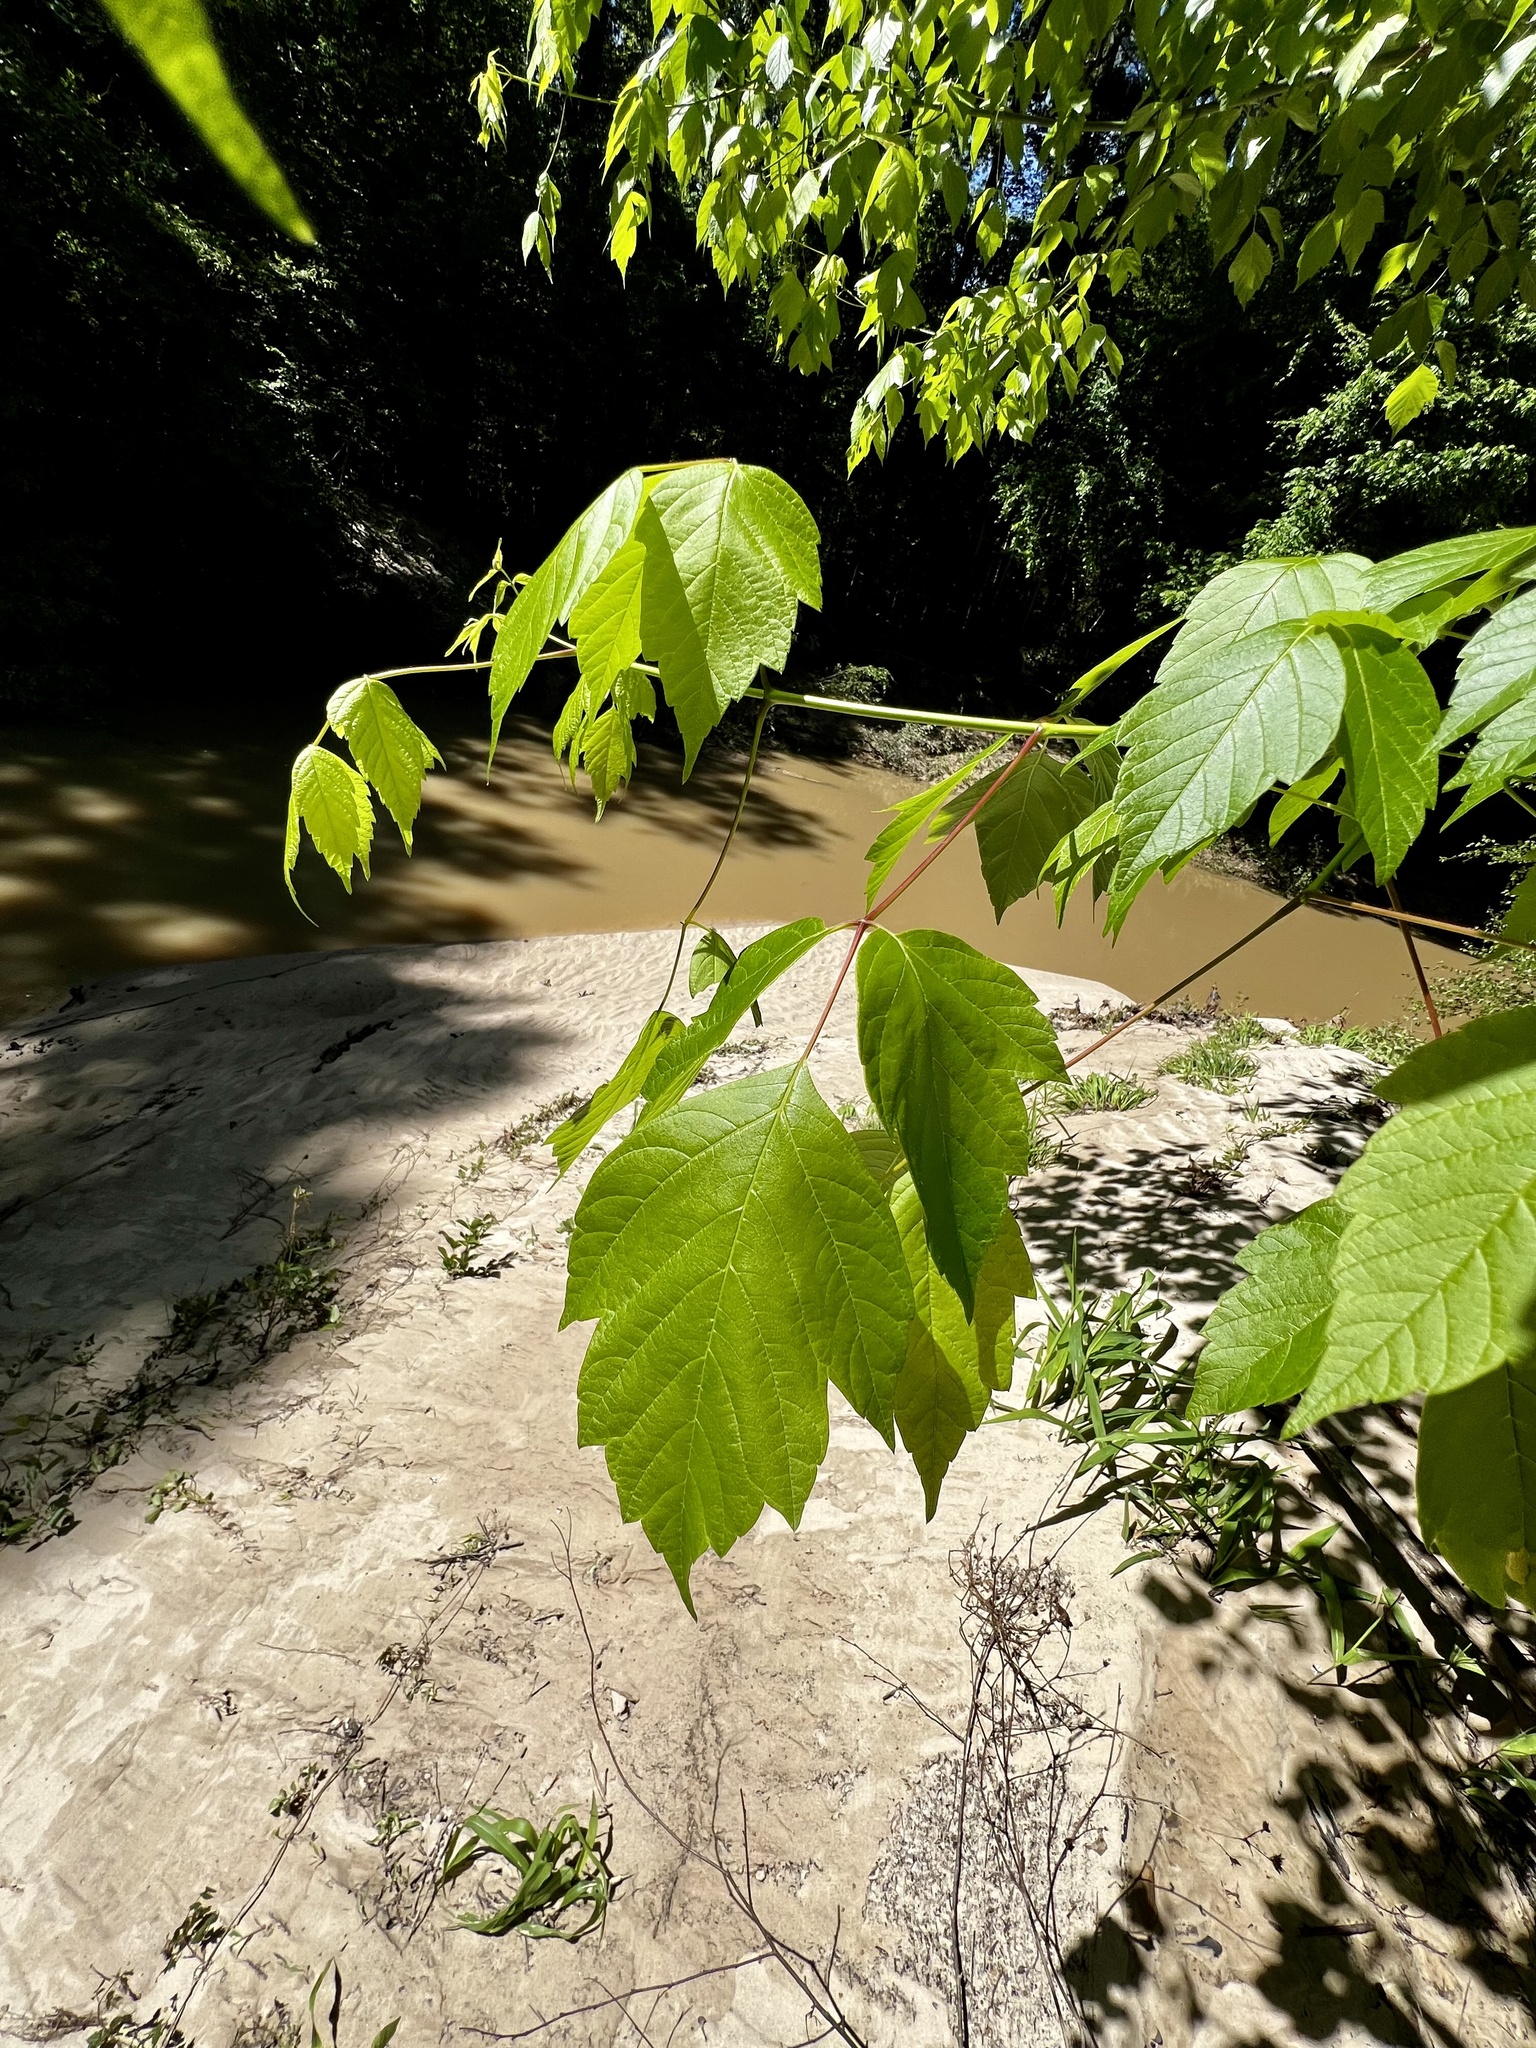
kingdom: Plantae
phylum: Tracheophyta
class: Magnoliopsida
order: Sapindales
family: Sapindaceae
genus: Acer
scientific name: Acer negundo
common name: Ashleaf maple
